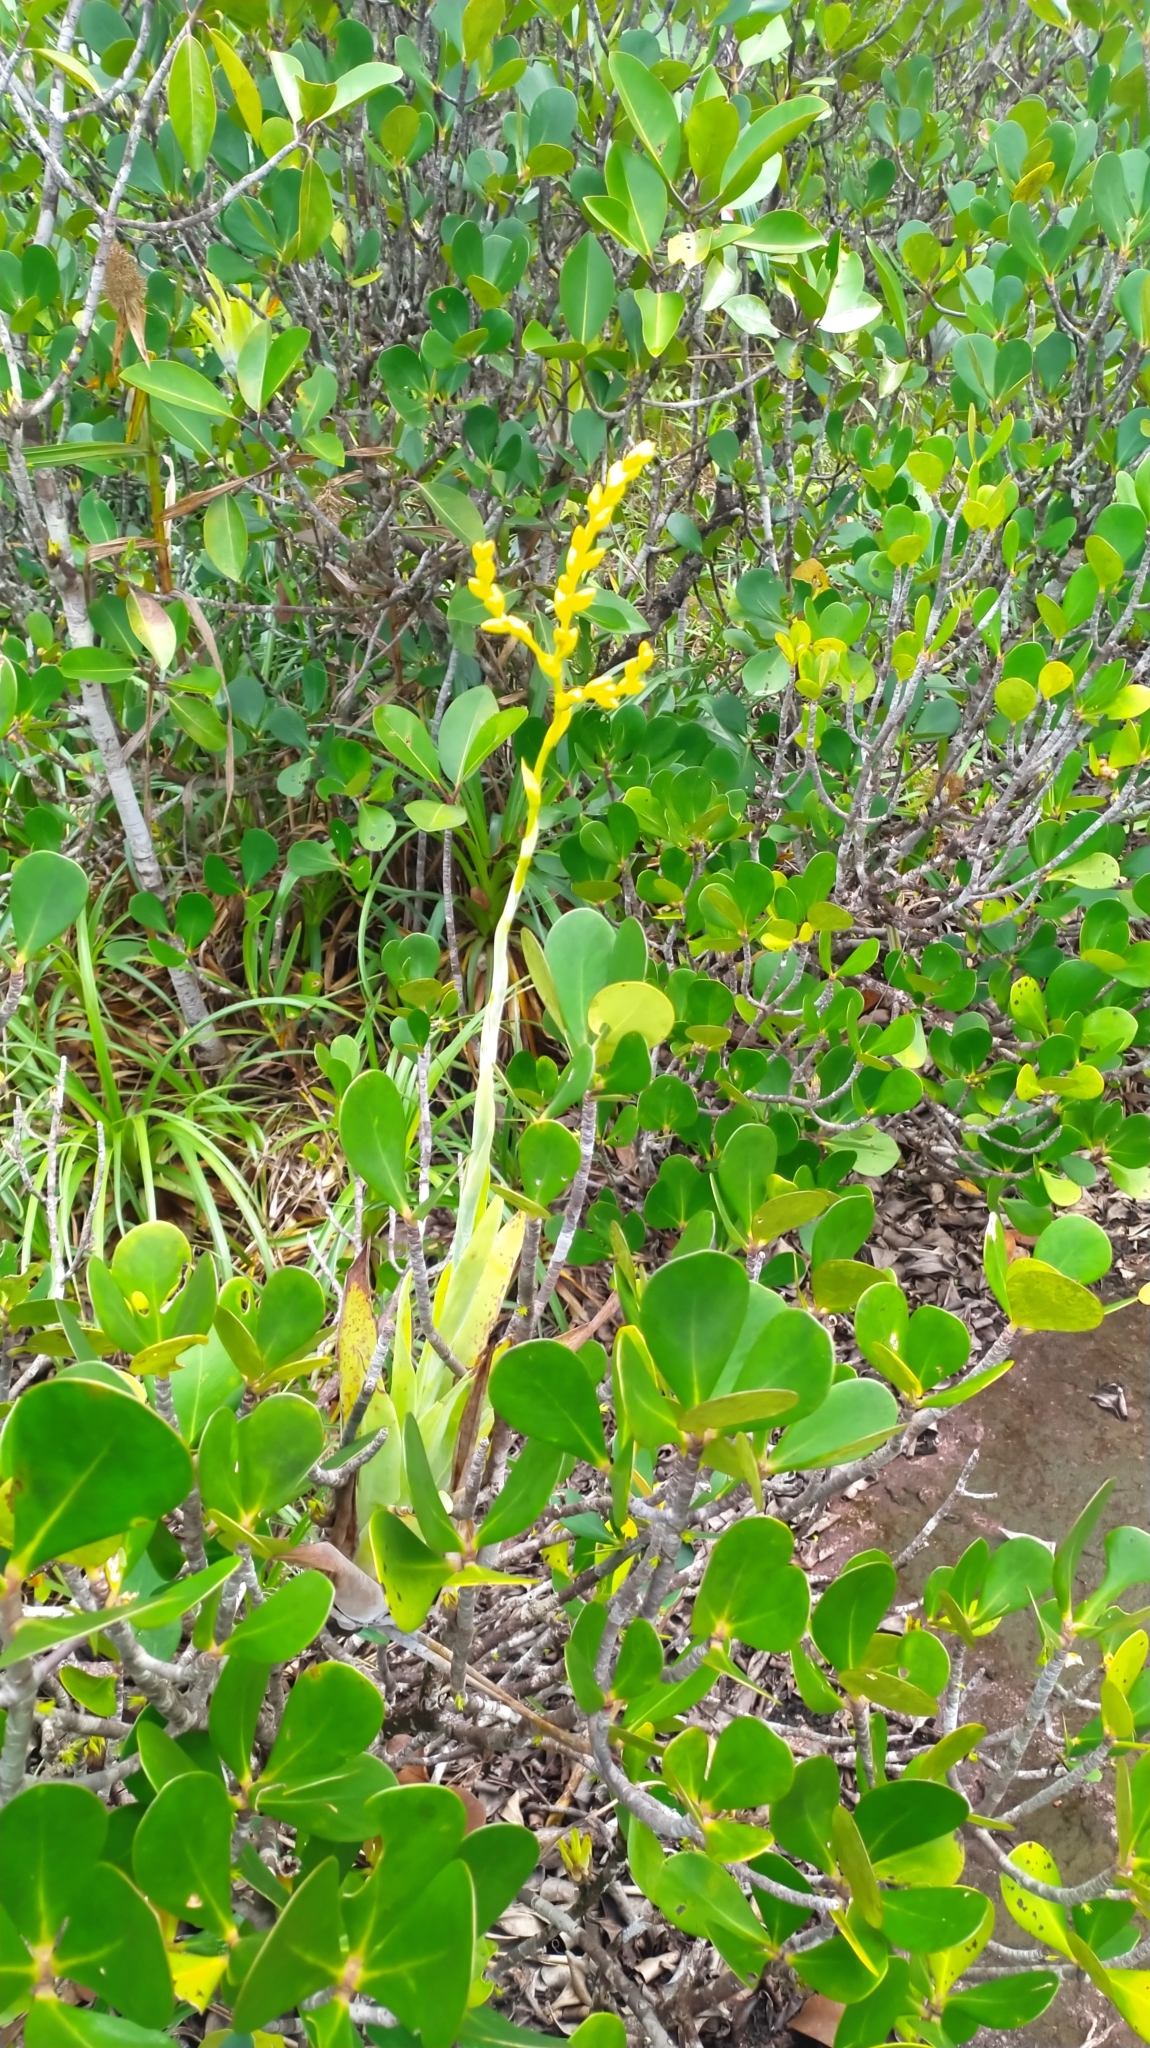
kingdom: Plantae
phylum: Tracheophyta
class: Liliopsida
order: Poales
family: Bromeliaceae
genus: Catopsis
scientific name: Catopsis berteroniana
